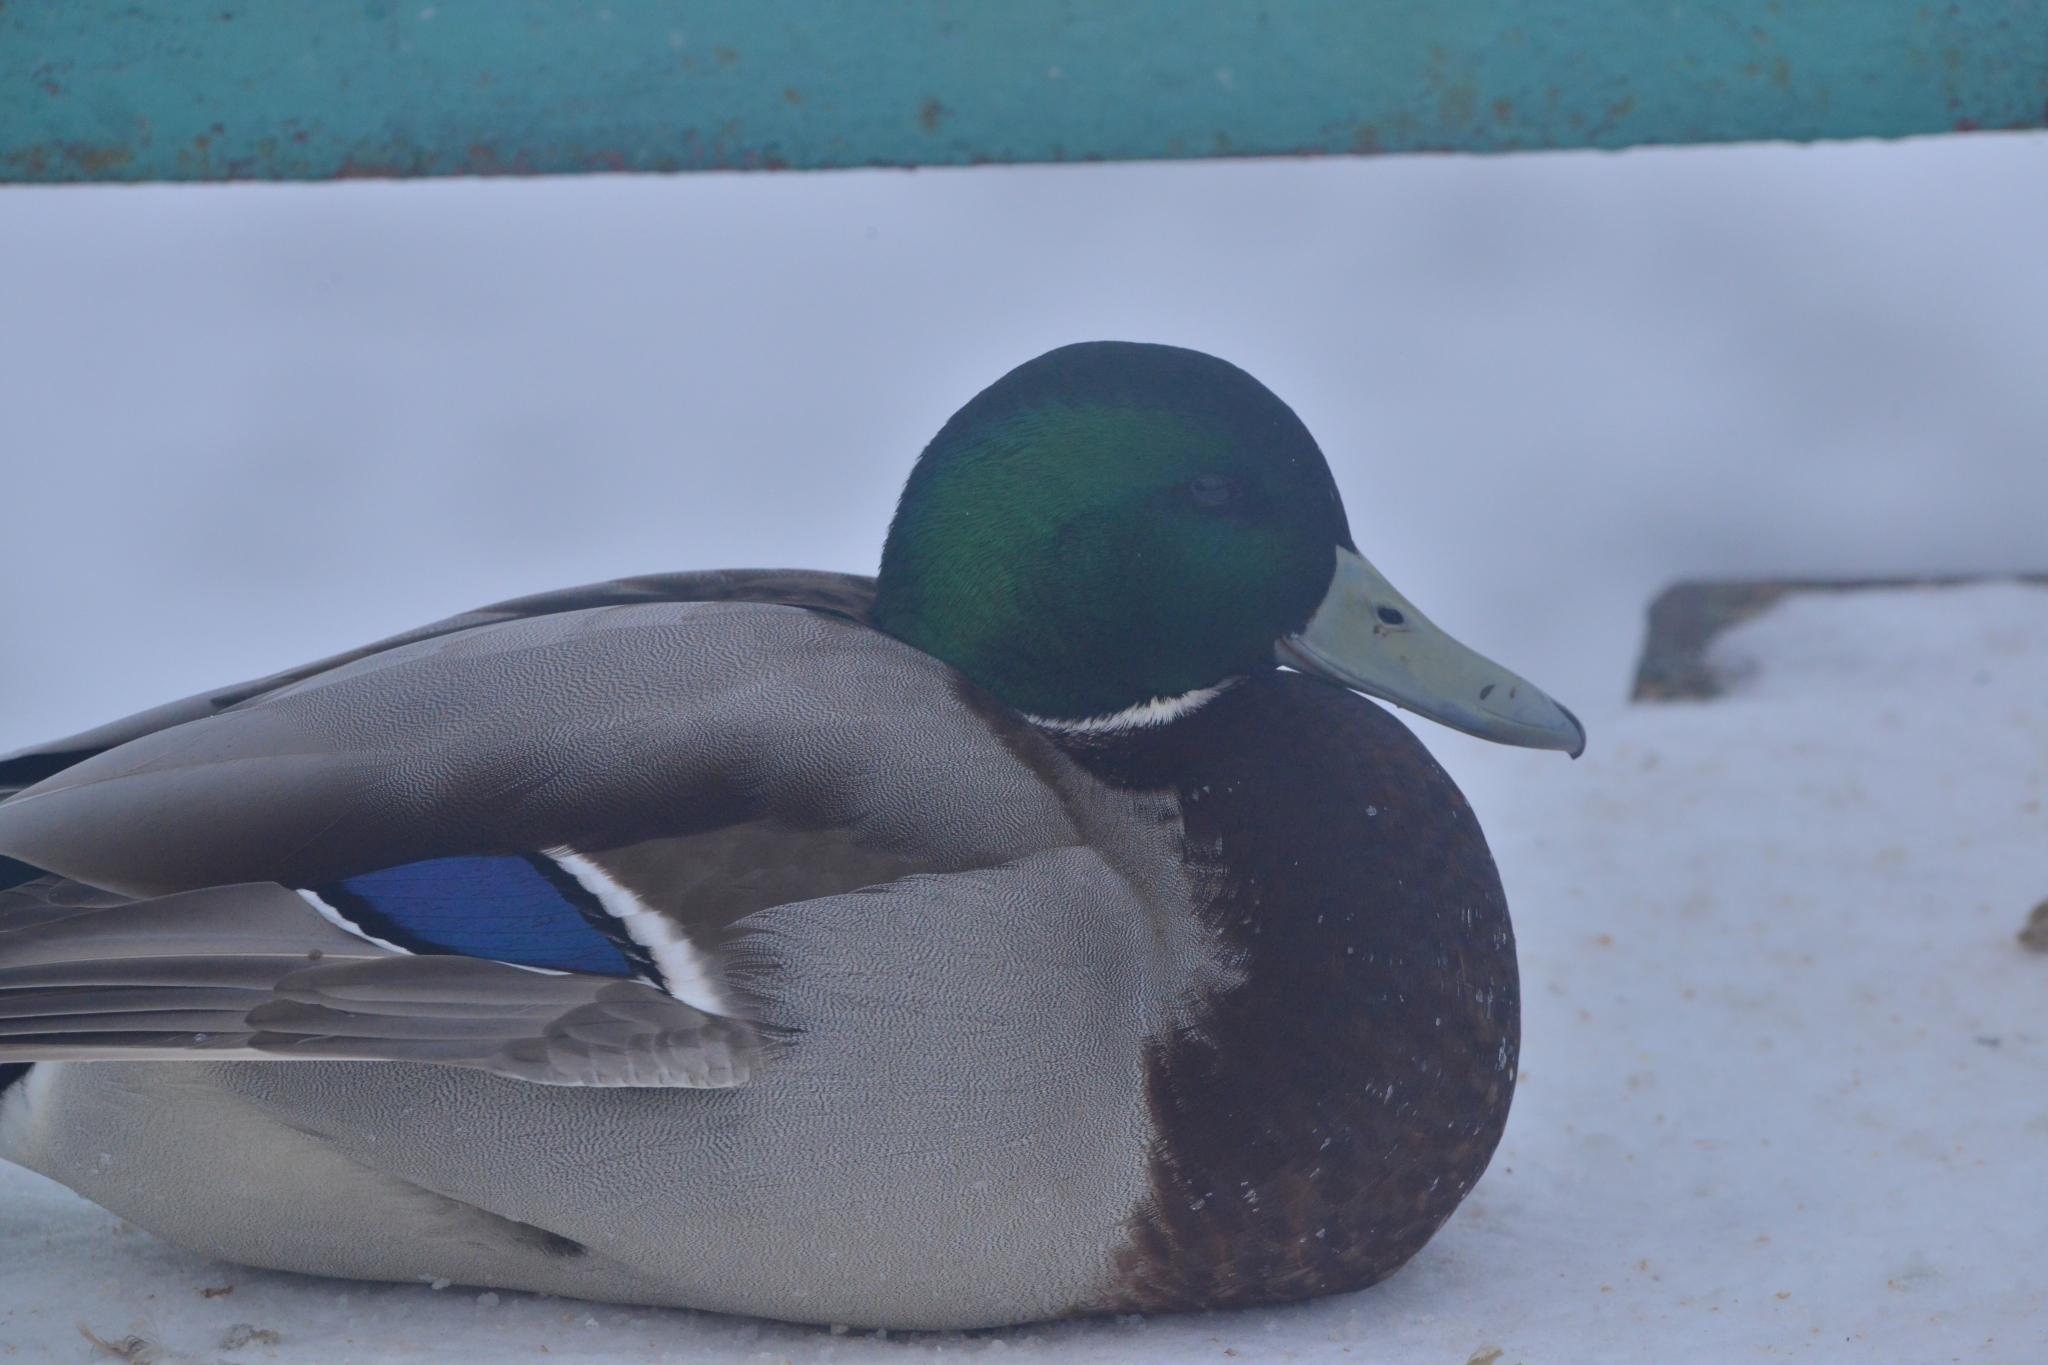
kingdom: Animalia
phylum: Chordata
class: Aves
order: Anseriformes
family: Anatidae
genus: Anas
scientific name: Anas platyrhynchos
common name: Mallard
